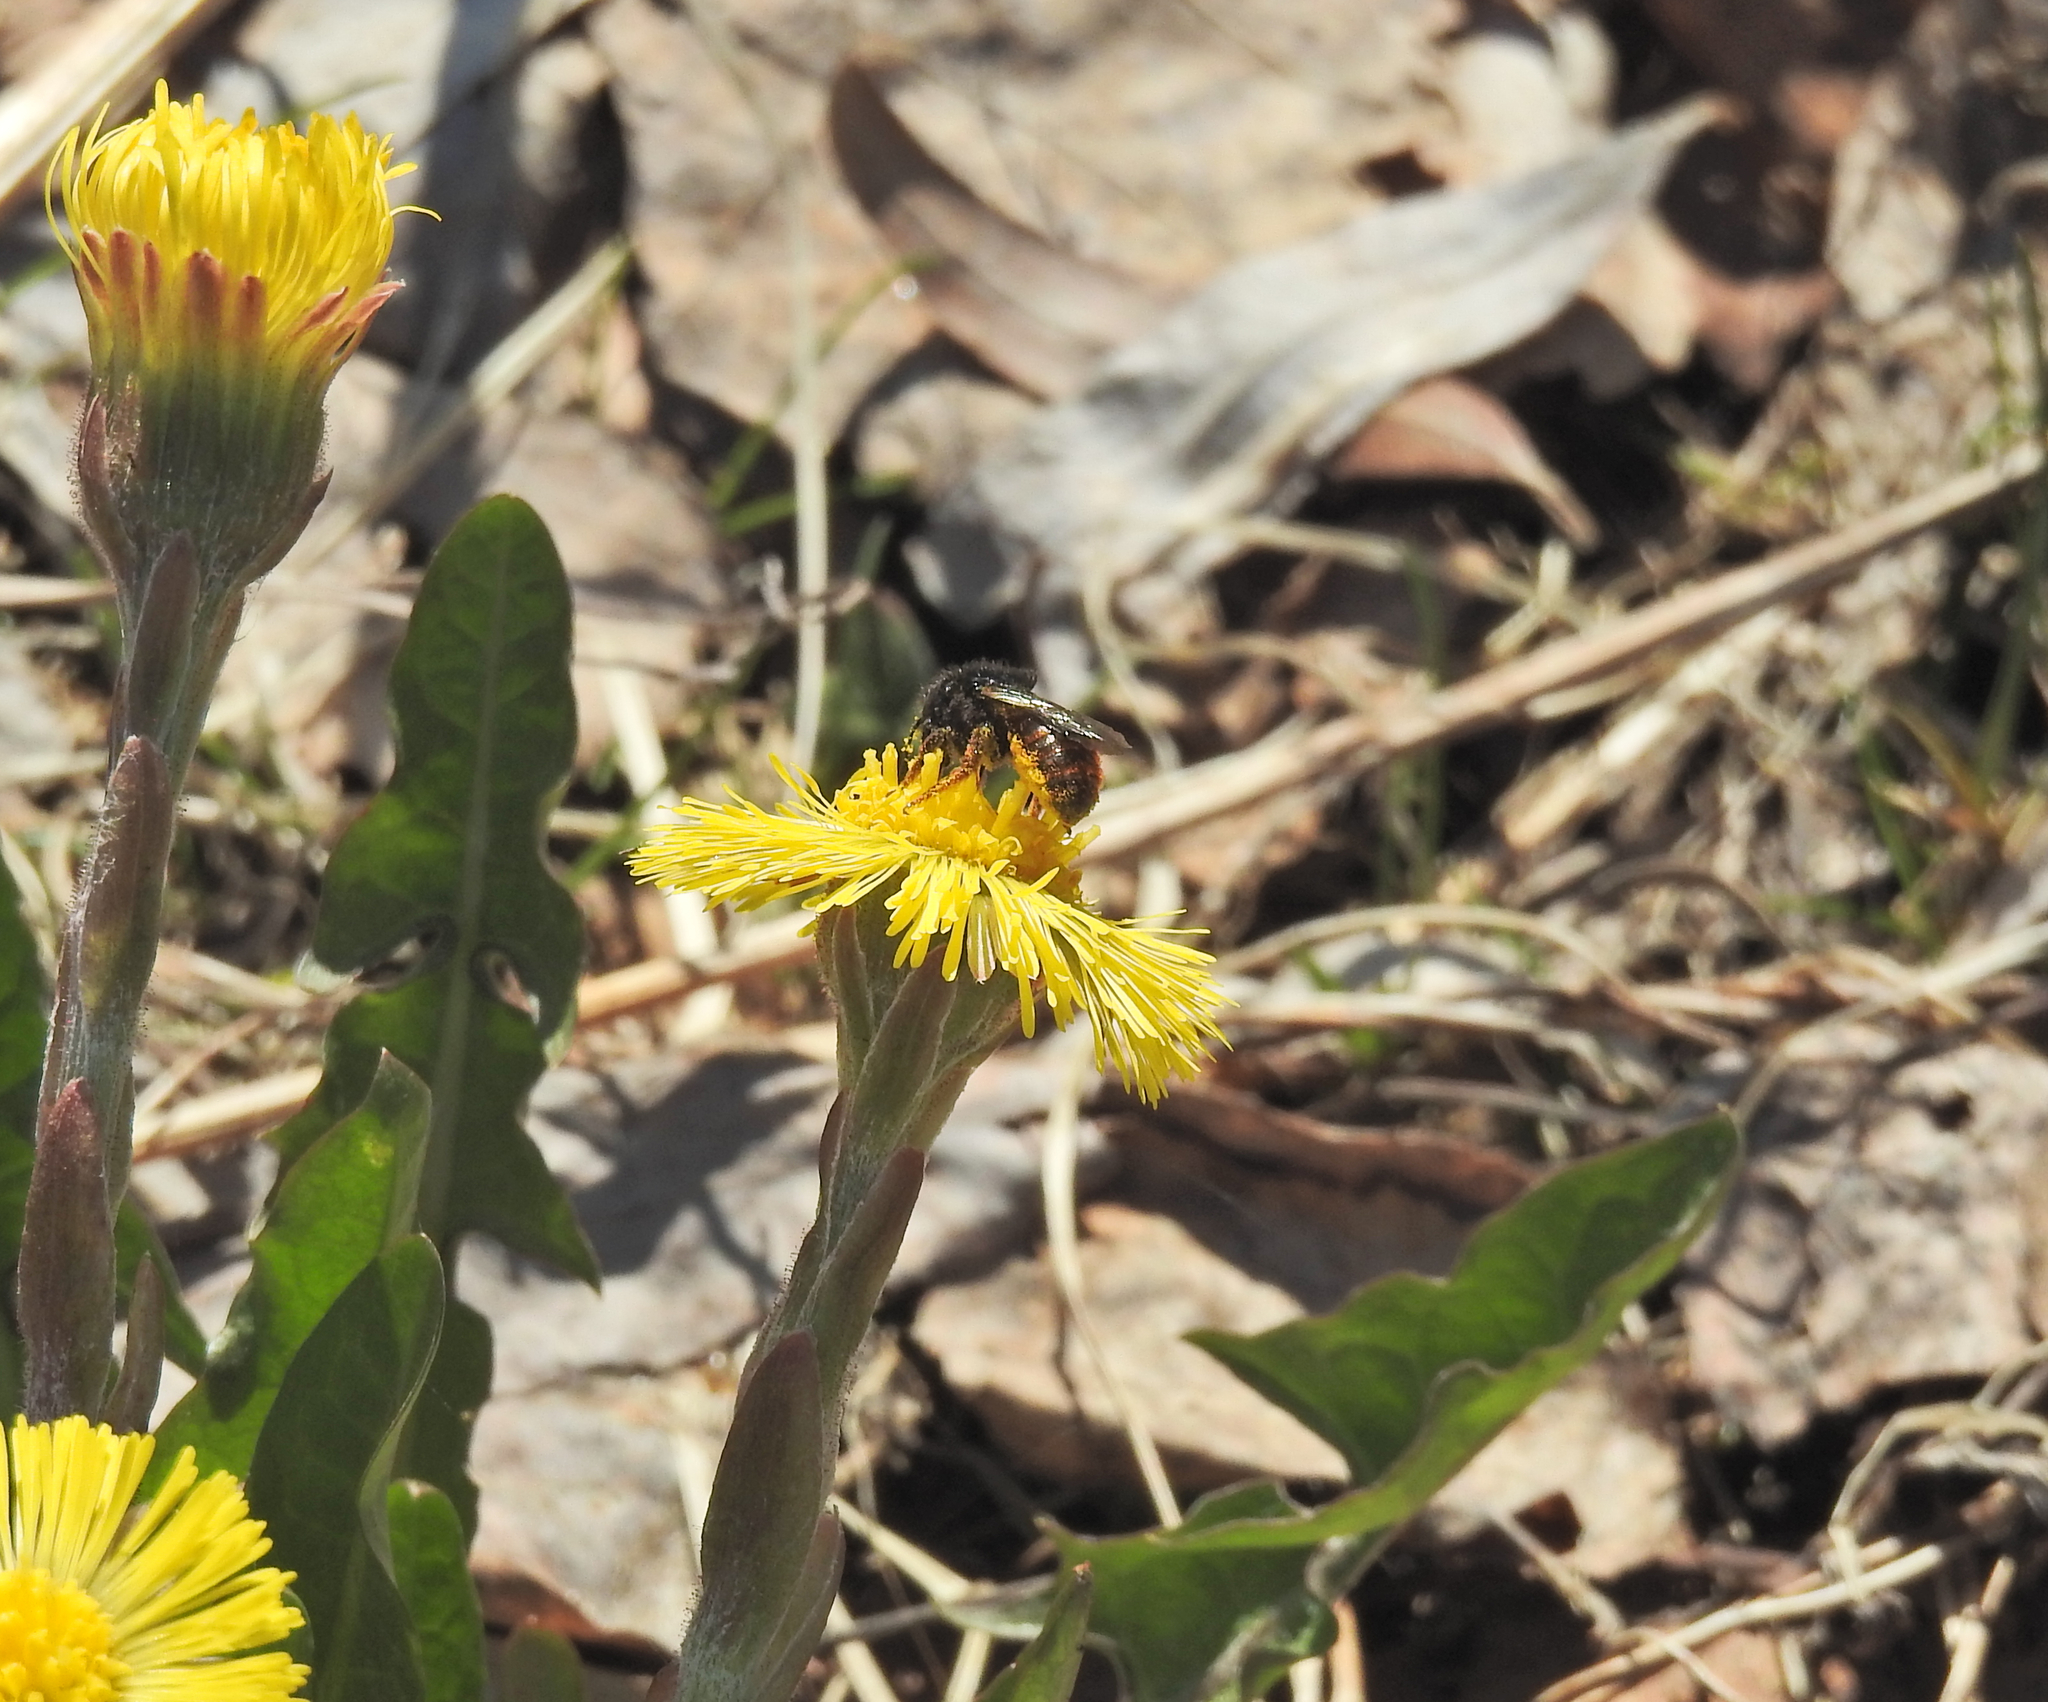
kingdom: Animalia
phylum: Arthropoda
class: Insecta
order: Hymenoptera
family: Megachilidae
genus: Osmia
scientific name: Osmia bicolor
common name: Red-tailed mason bee
